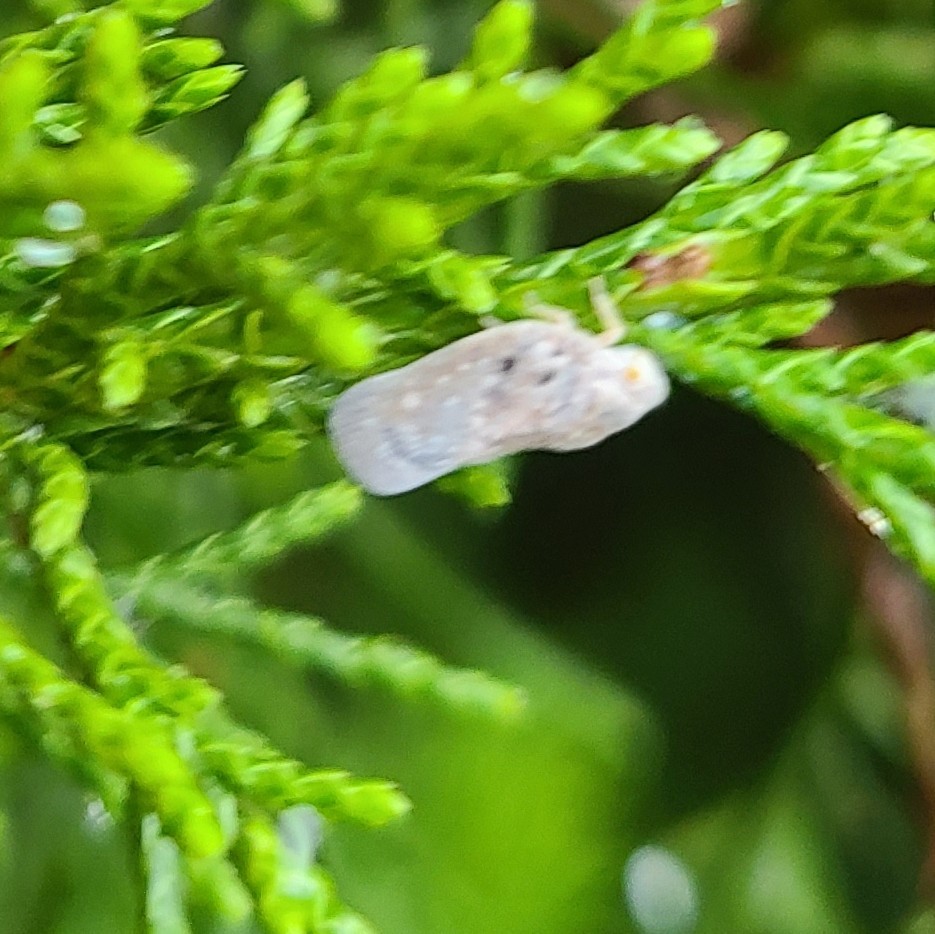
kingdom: Animalia
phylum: Arthropoda
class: Insecta
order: Hemiptera
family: Flatidae
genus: Metcalfa
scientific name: Metcalfa pruinosa
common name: Citrus flatid planthopper
